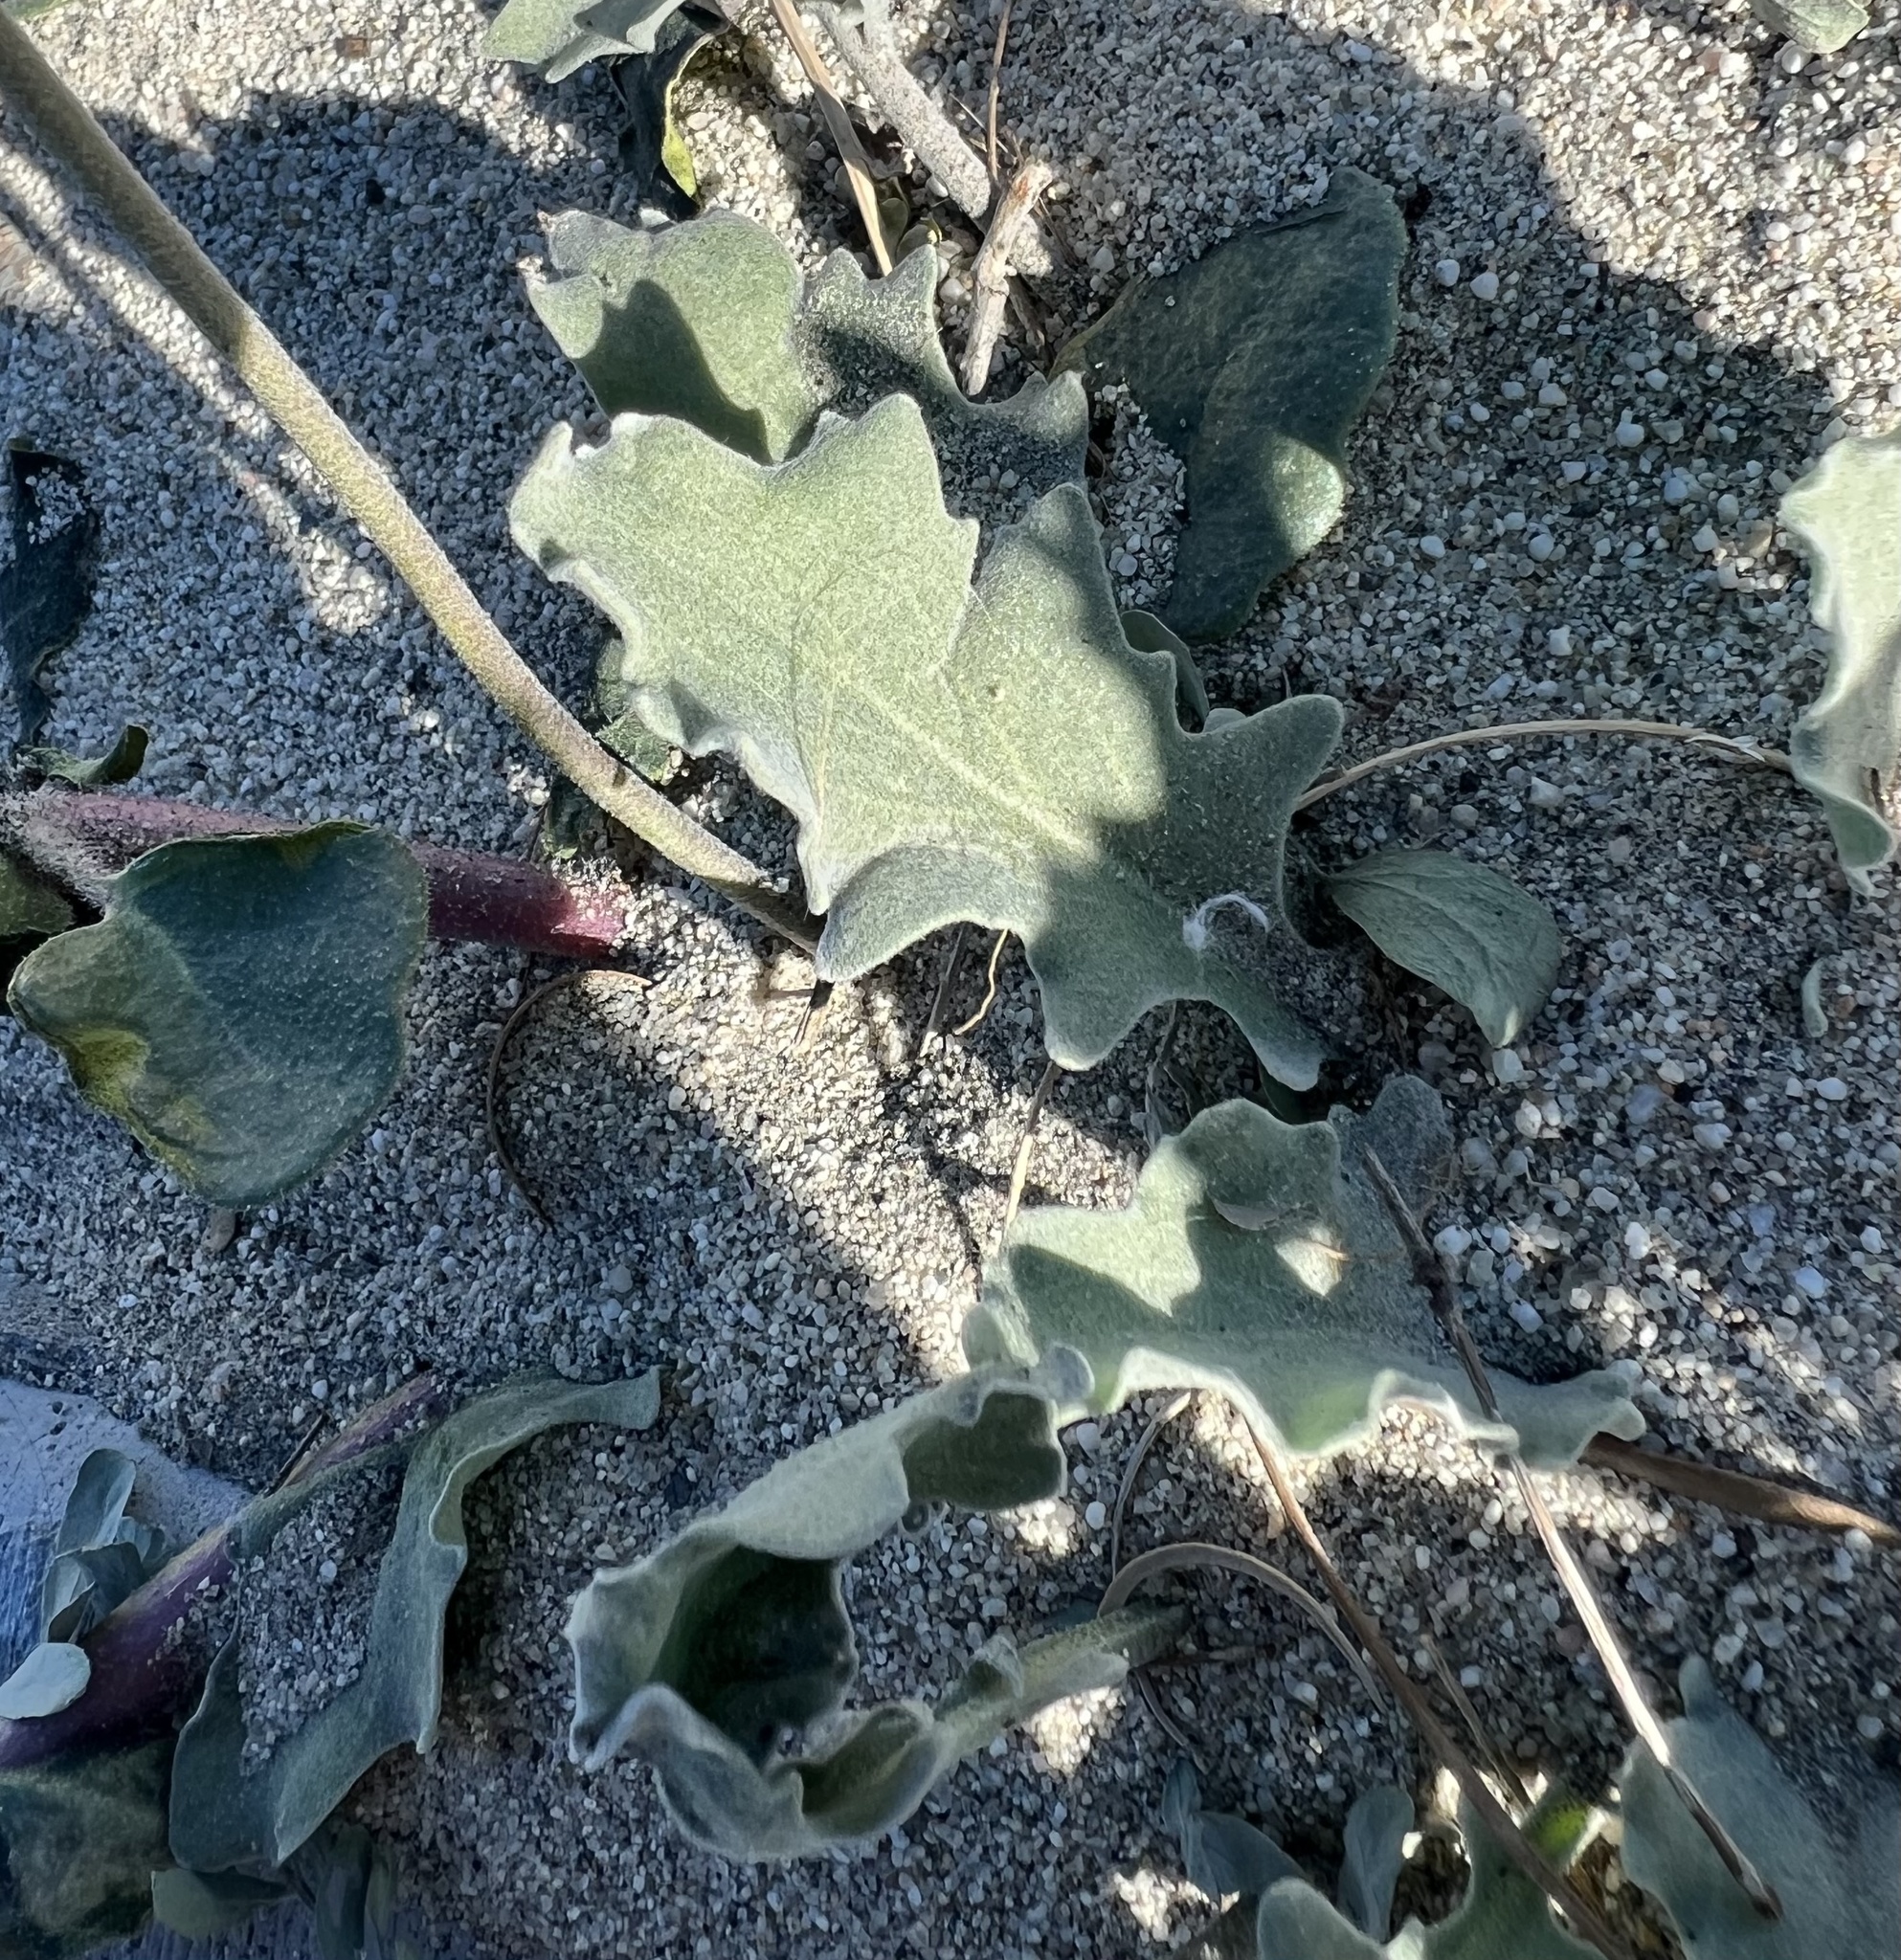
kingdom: Plantae
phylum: Tracheophyta
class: Magnoliopsida
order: Brassicales
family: Brassicaceae
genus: Dithyrea
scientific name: Dithyrea californica
